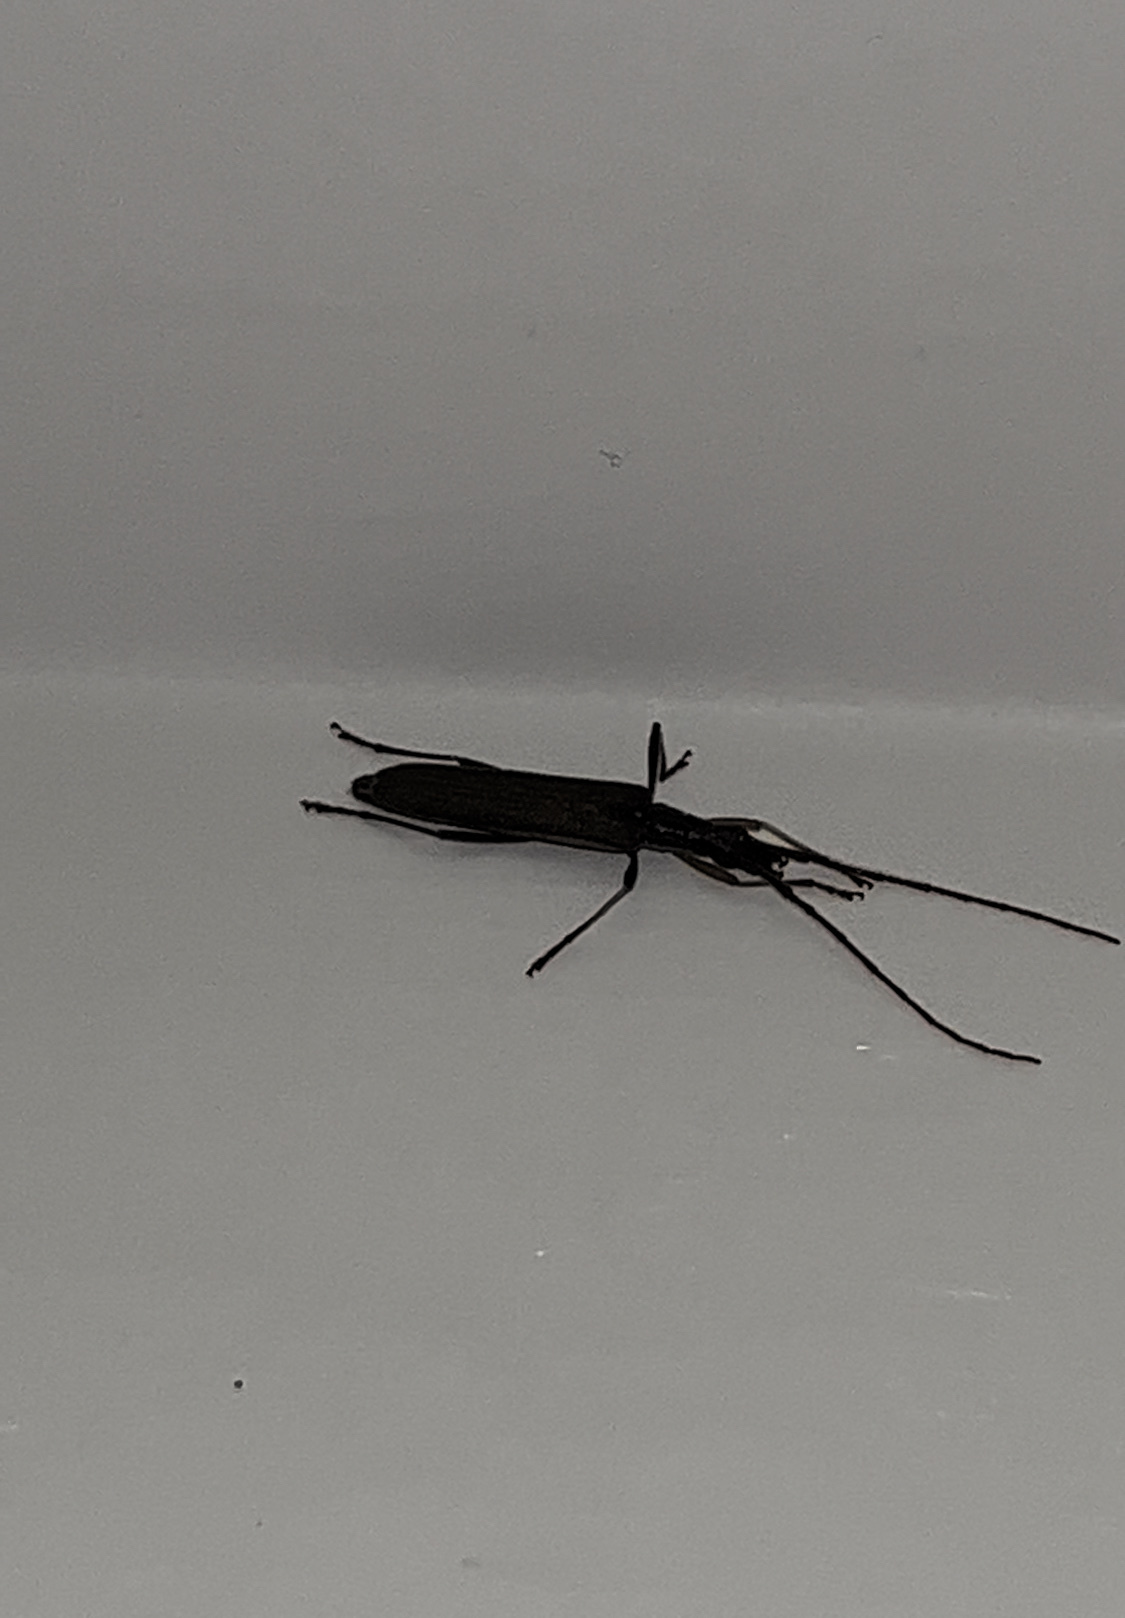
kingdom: Animalia
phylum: Arthropoda
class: Insecta
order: Coleoptera
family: Cerambycidae
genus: Stenopotes
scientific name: Stenopotes pallidus
